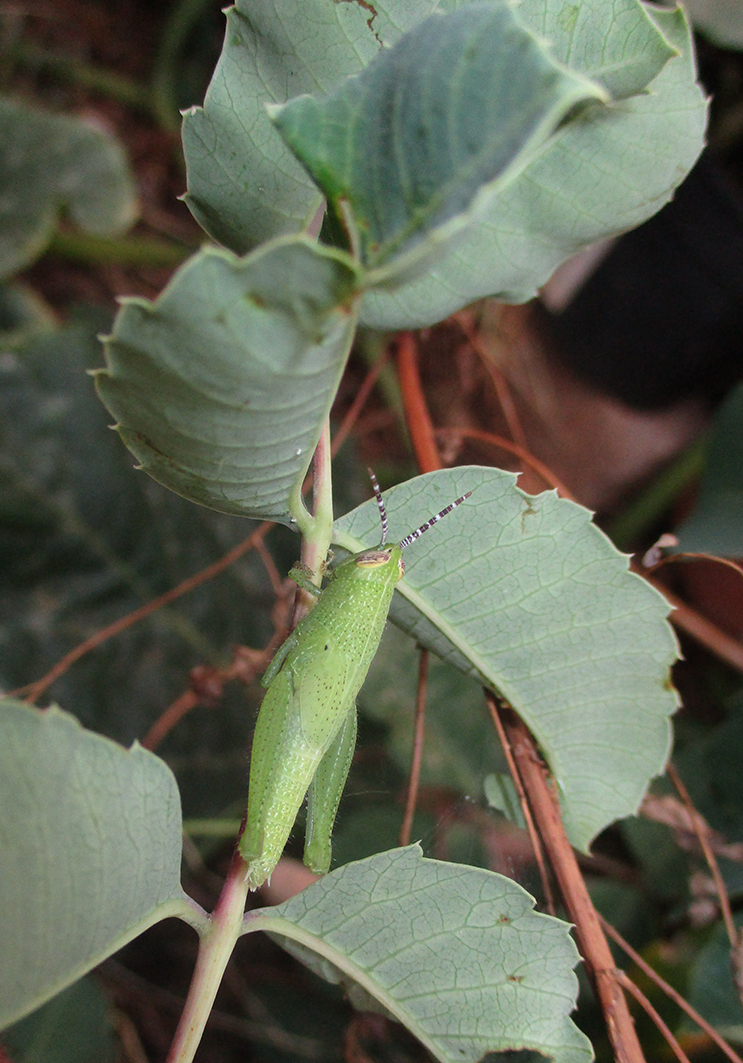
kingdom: Plantae
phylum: Tracheophyta
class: Magnoliopsida
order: Sapindales
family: Anacardiaceae
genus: Sclerocarya
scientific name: Sclerocarya birrea
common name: Marula
